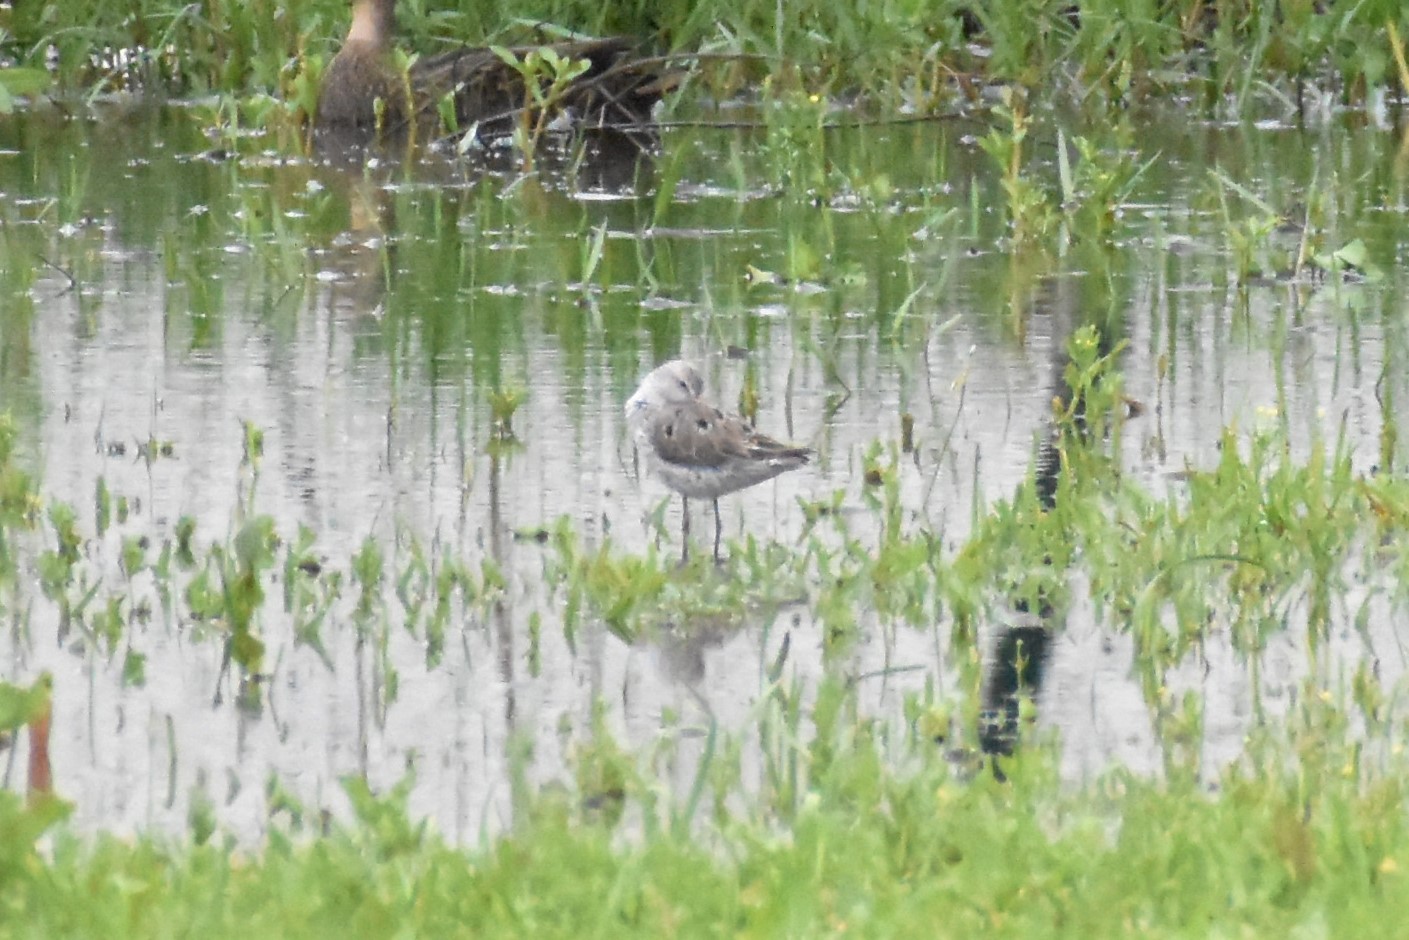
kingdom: Animalia
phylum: Chordata
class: Aves
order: Charadriiformes
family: Scolopacidae
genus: Calidris
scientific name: Calidris himantopus
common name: Stilt sandpiper
